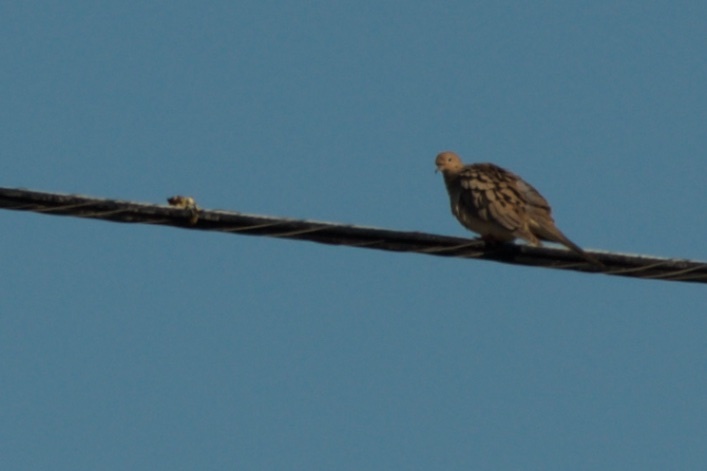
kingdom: Animalia
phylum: Chordata
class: Aves
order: Columbiformes
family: Columbidae
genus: Zenaida
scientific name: Zenaida macroura
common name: Mourning dove
